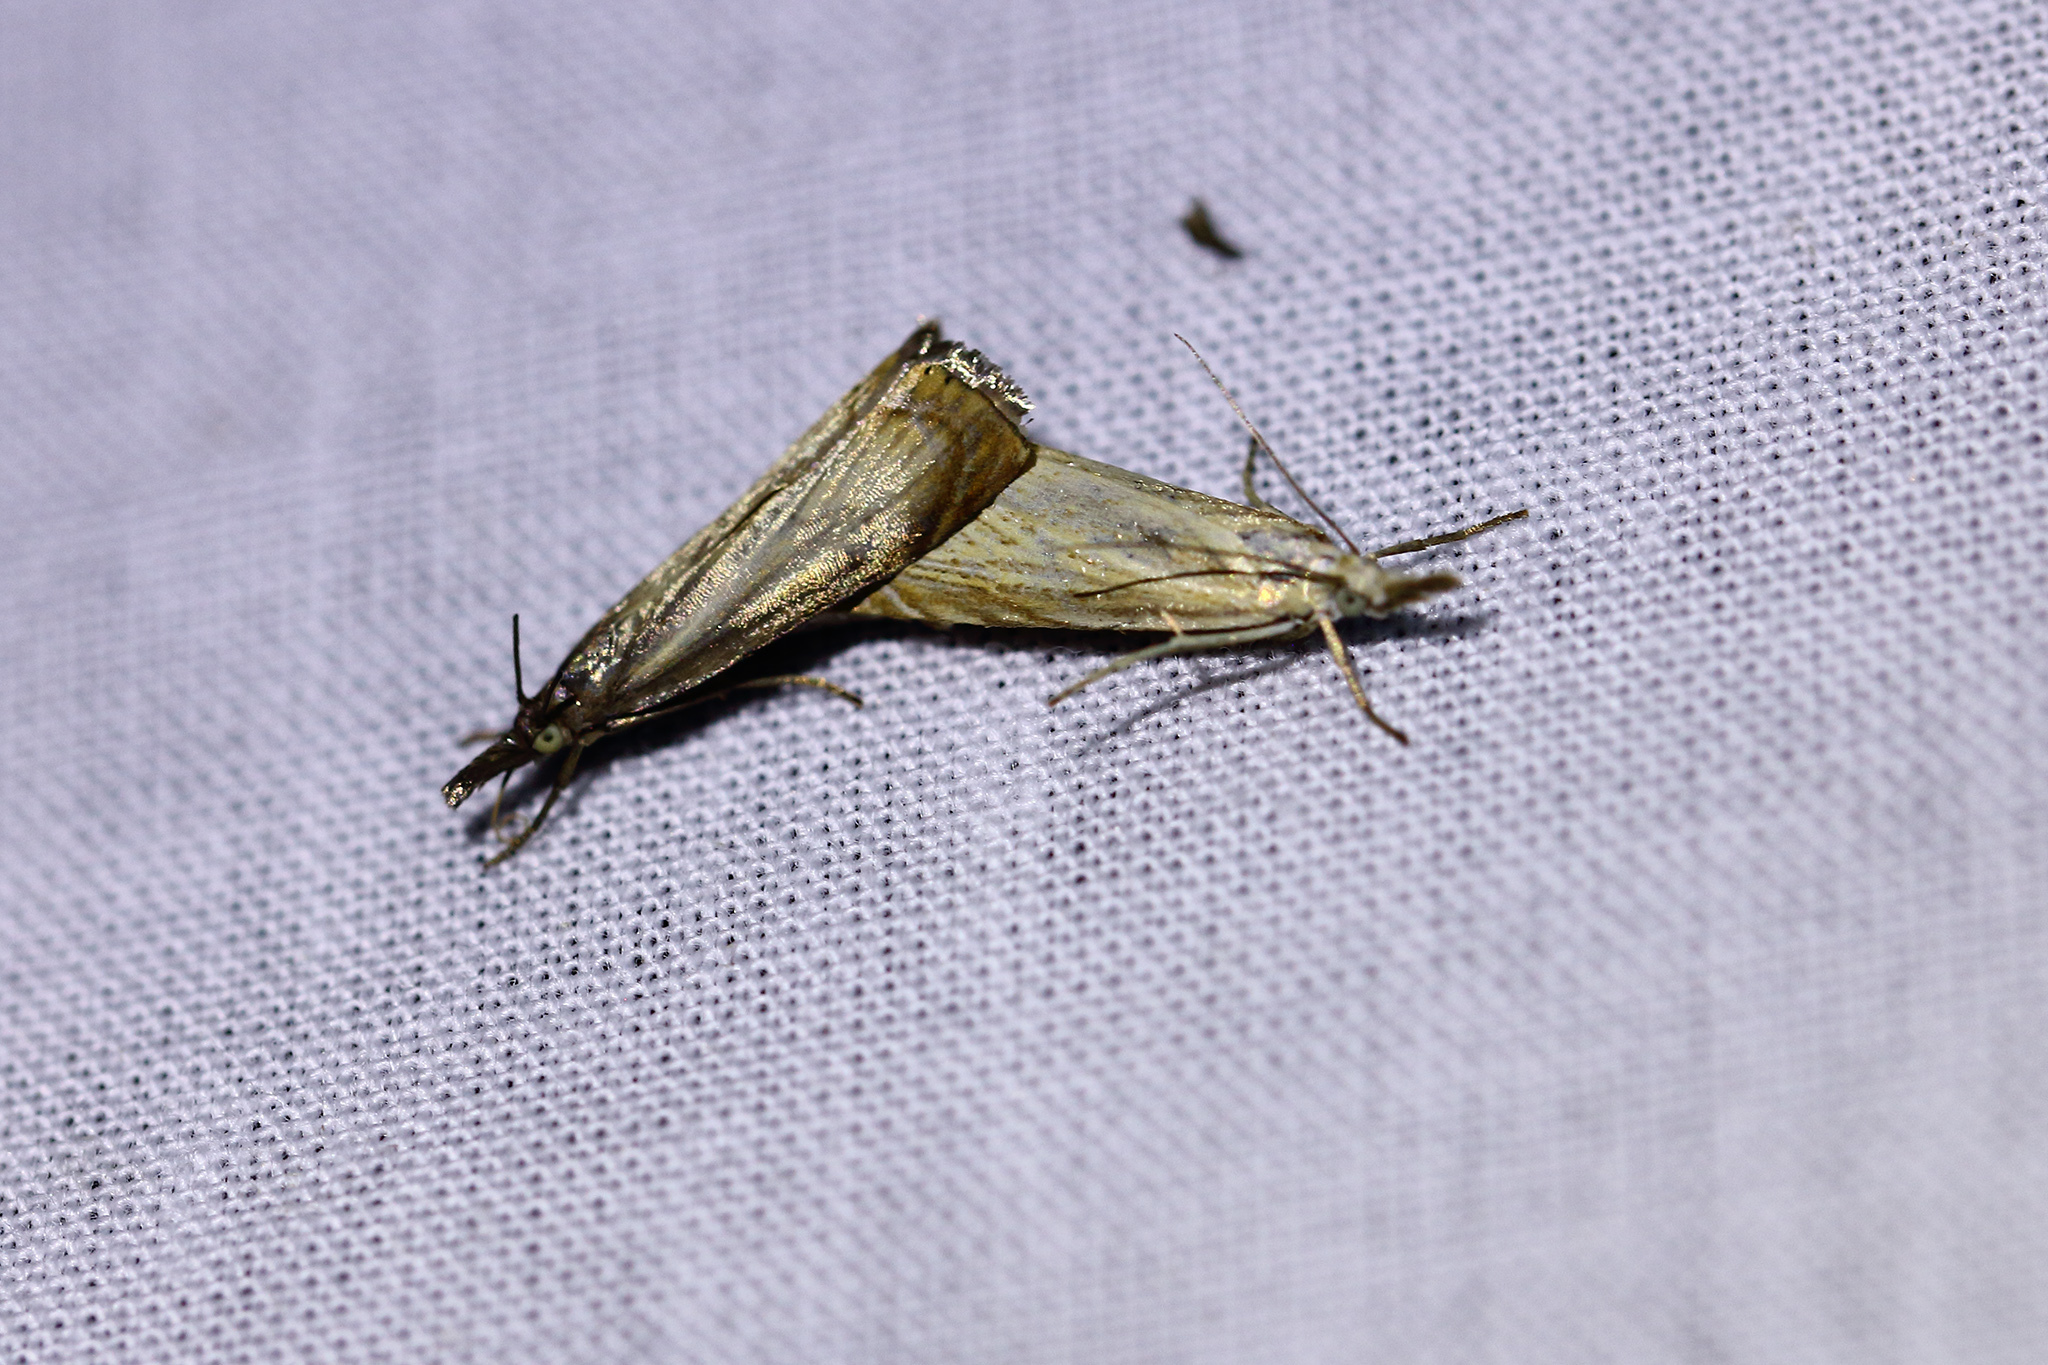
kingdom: Animalia
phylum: Arthropoda
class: Insecta
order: Lepidoptera
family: Crambidae
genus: Chrysoteuchia
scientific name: Chrysoteuchia culmella
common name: Garden grass-veneer
